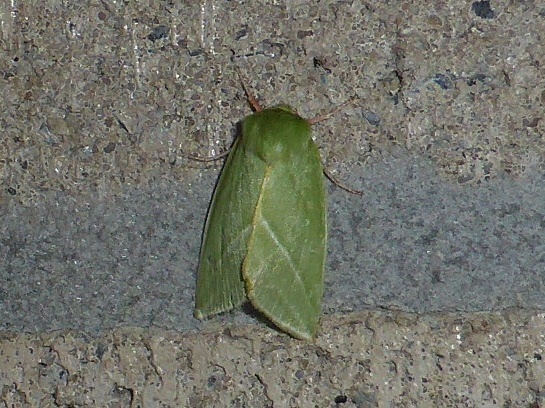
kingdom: Animalia
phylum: Arthropoda
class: Insecta
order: Lepidoptera
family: Nolidae
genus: Pseudoips
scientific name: Pseudoips prasinana
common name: Green silver-lines
